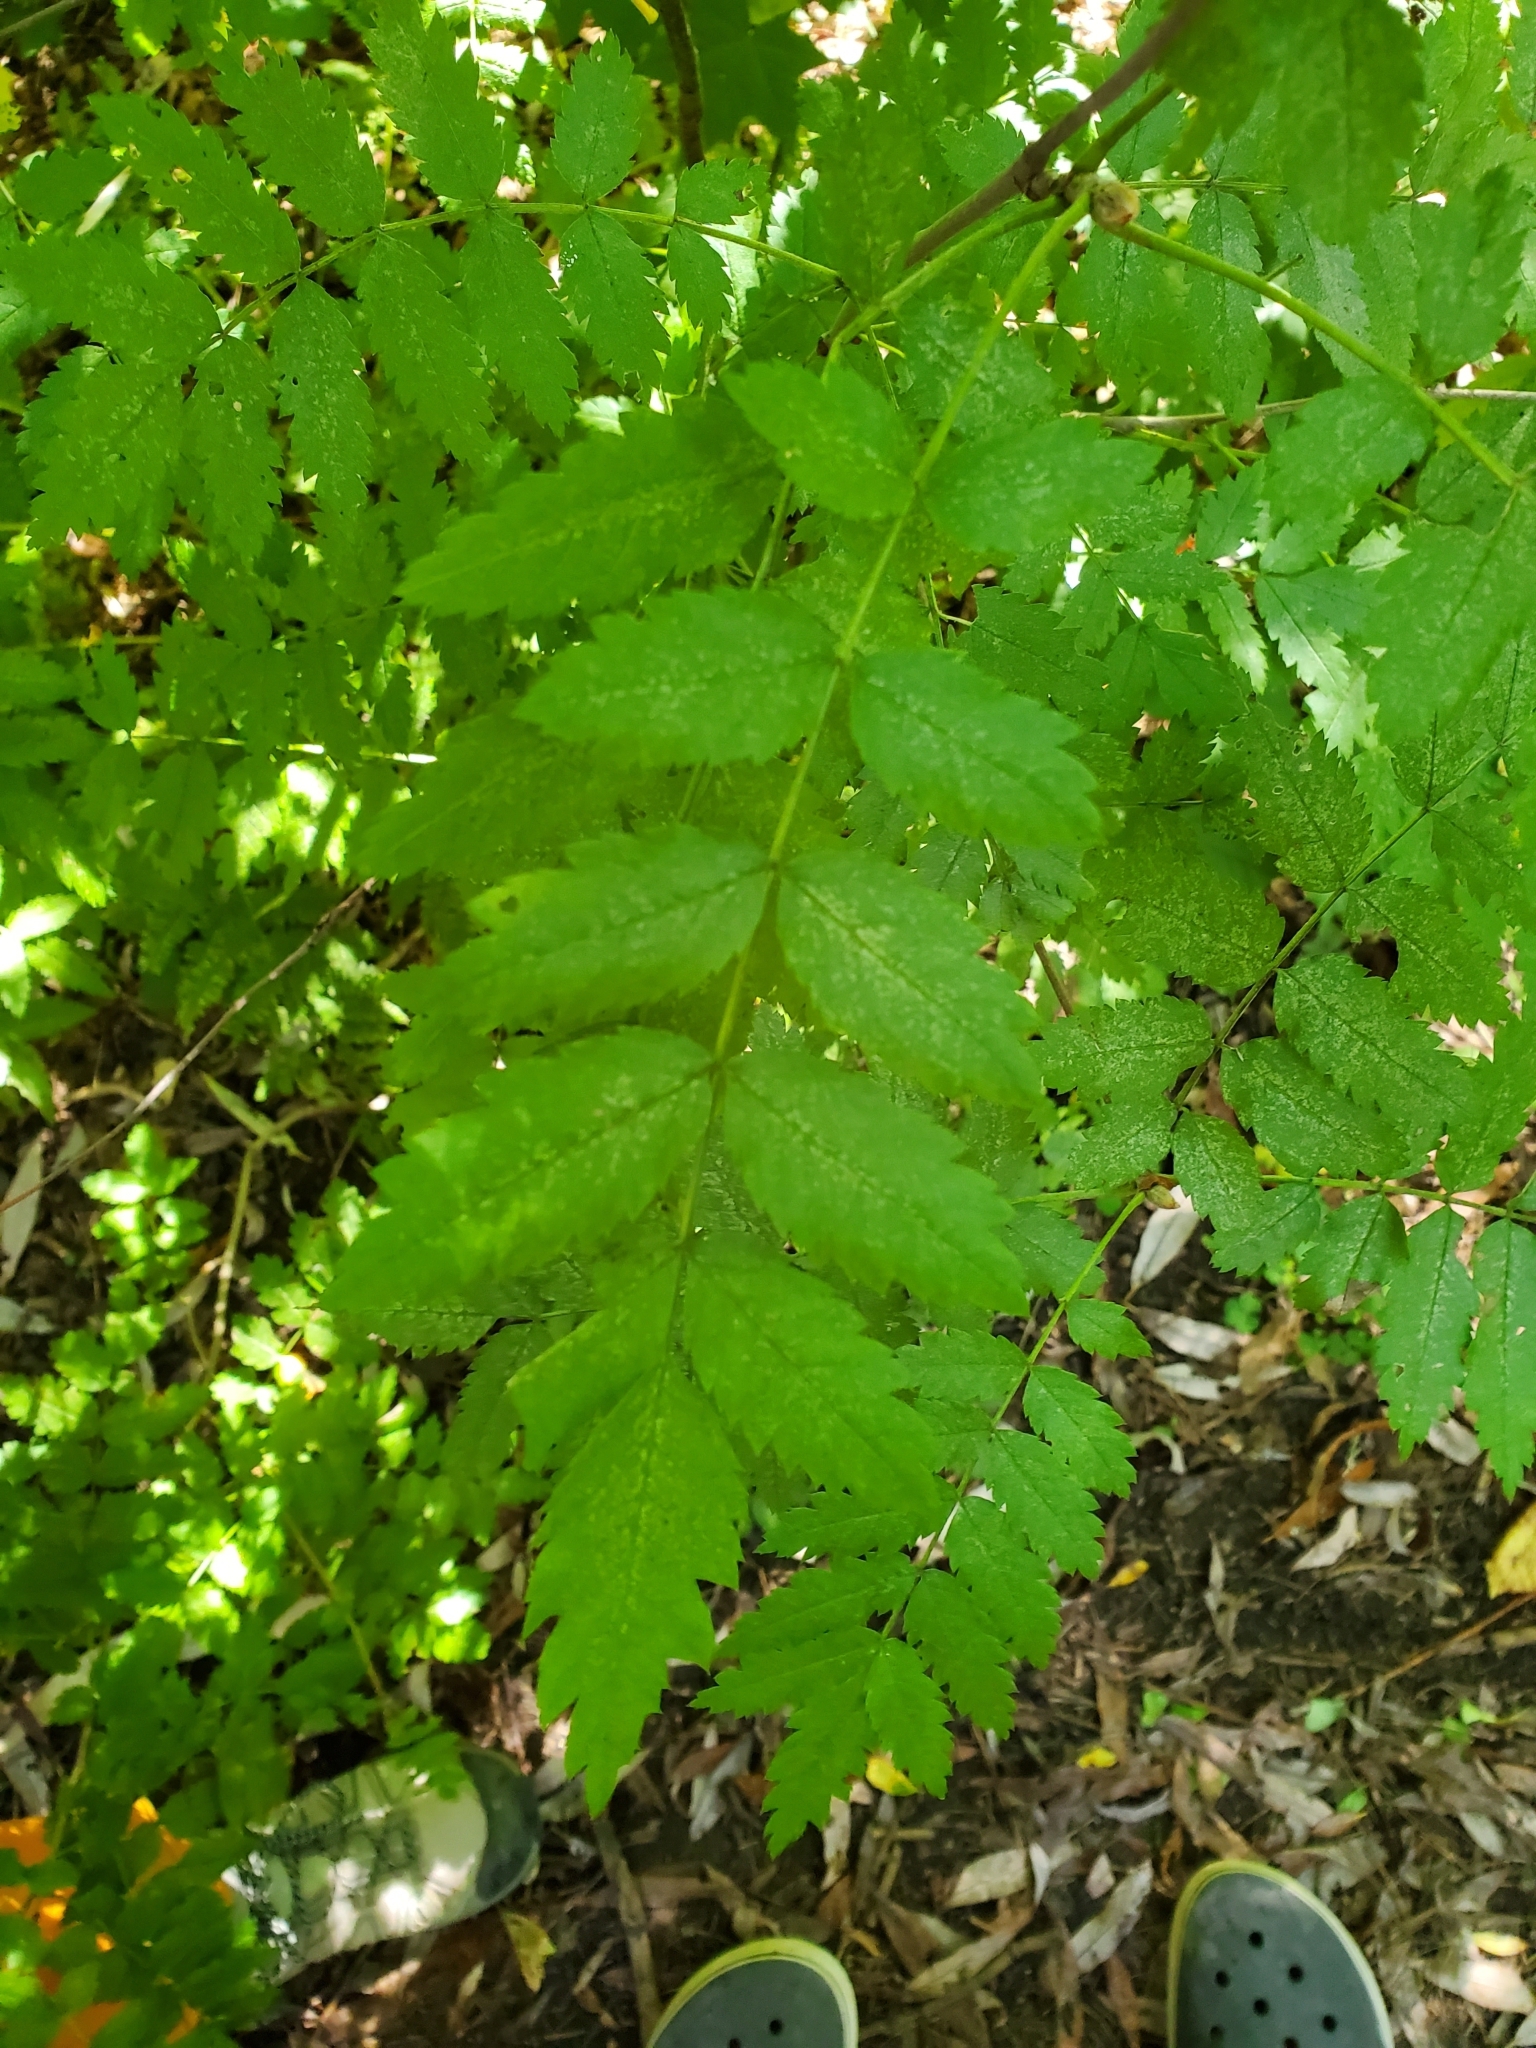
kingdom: Plantae
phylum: Tracheophyta
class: Magnoliopsida
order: Rosales
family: Rosaceae
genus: Sorbus
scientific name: Sorbus aucuparia
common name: Rowan
